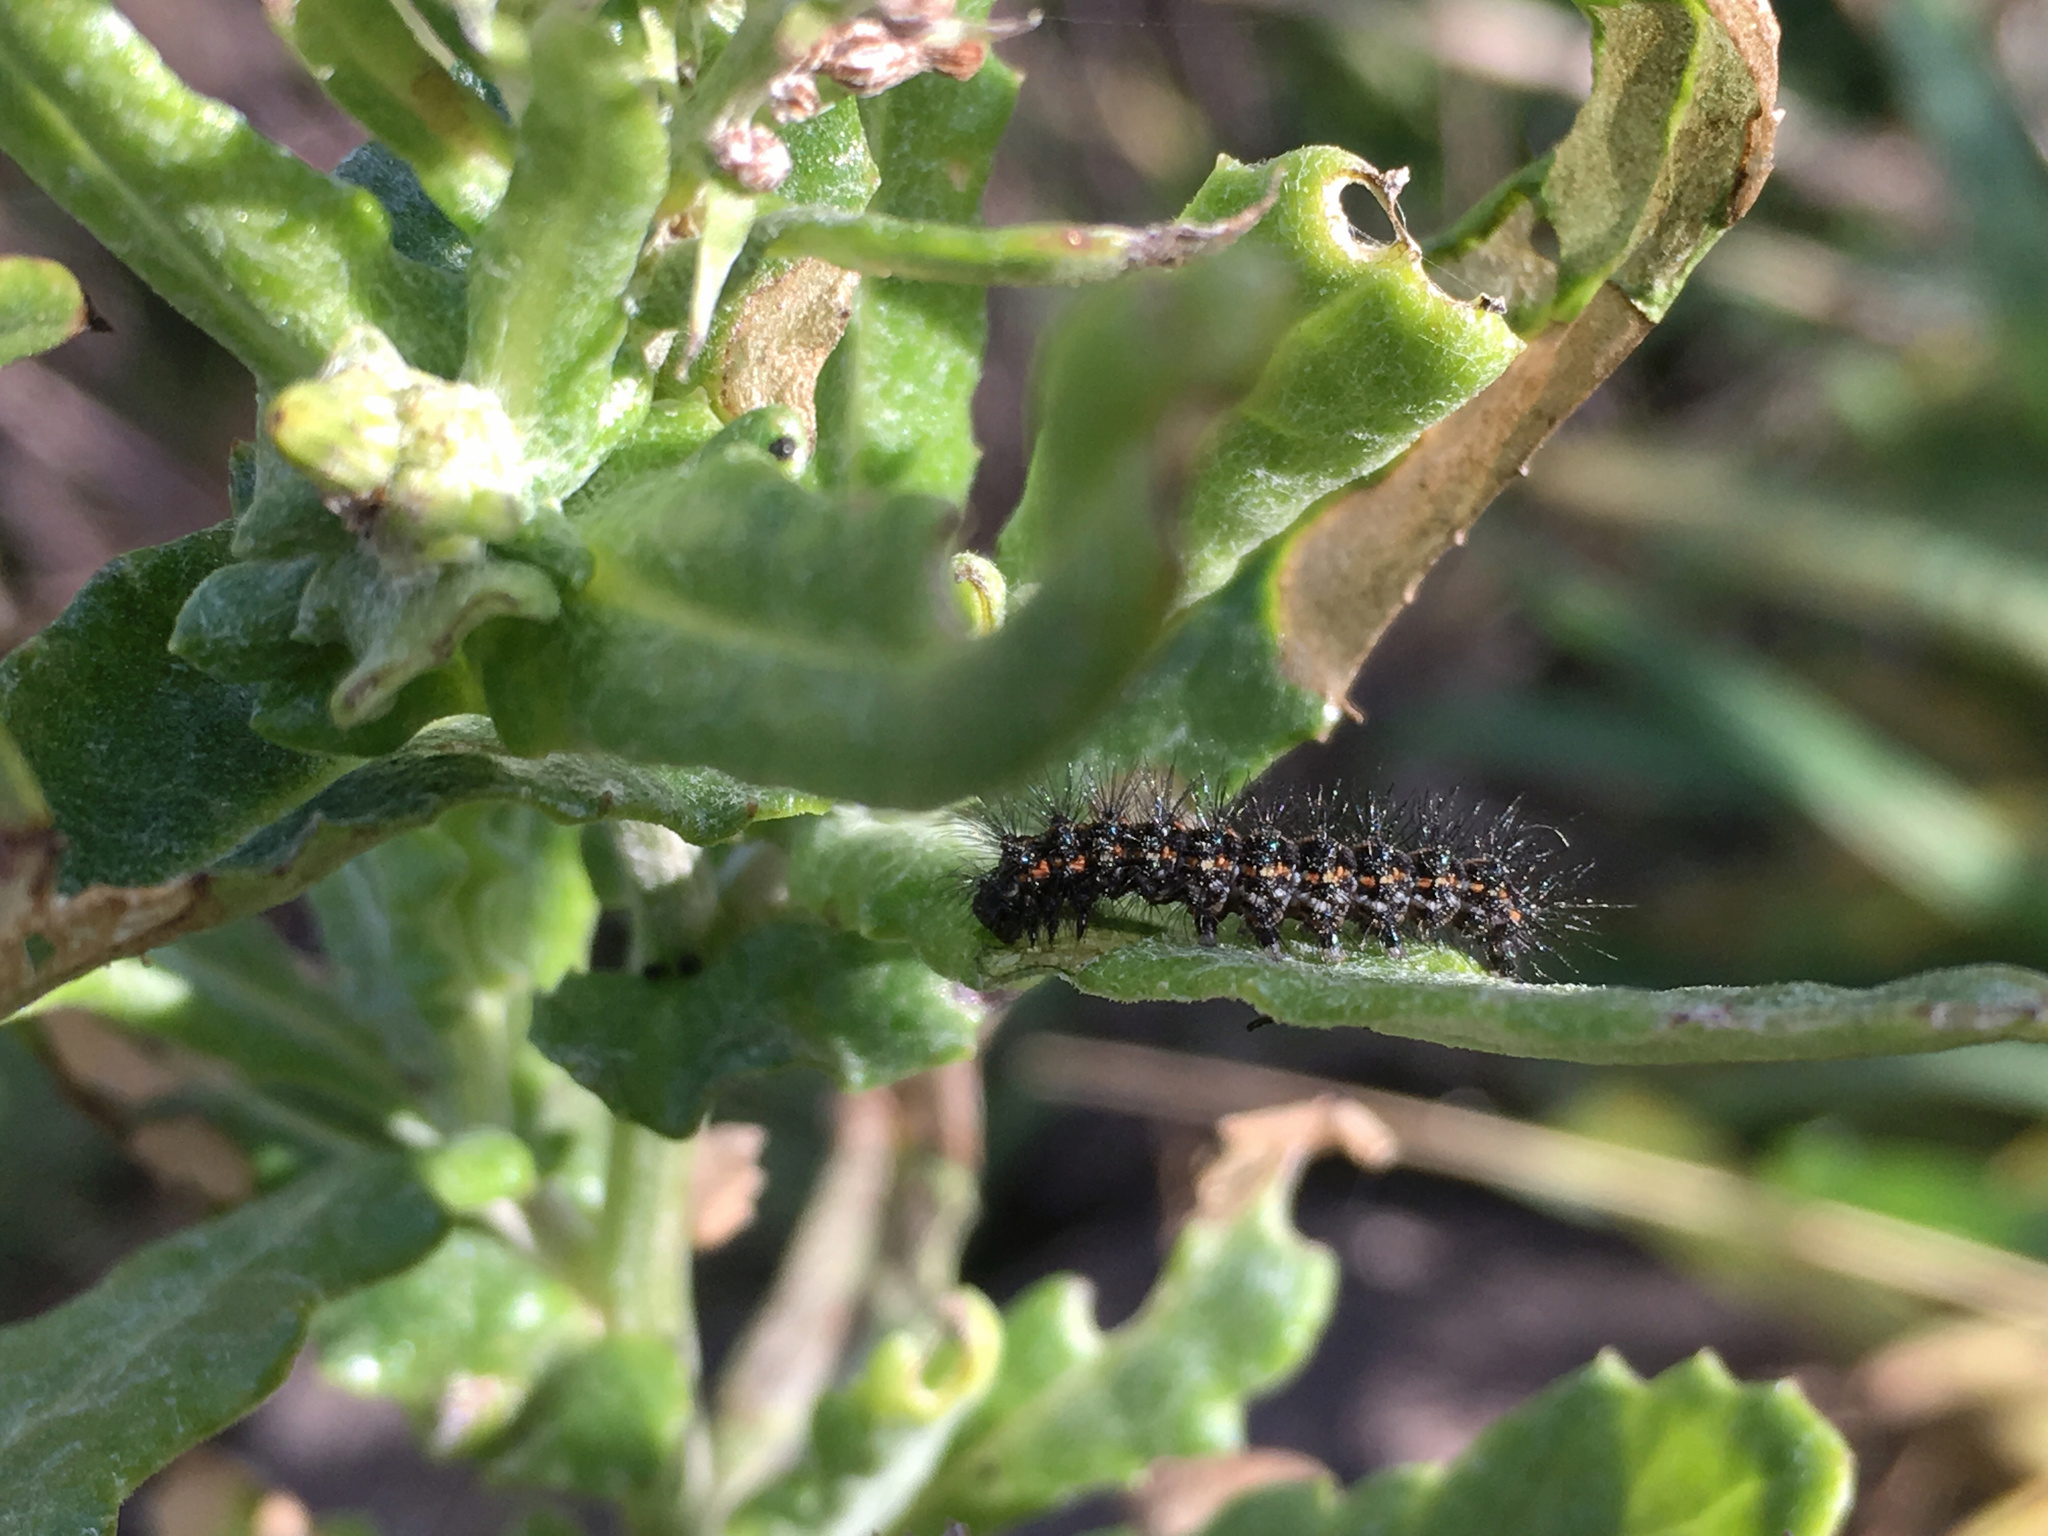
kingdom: Animalia
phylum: Arthropoda
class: Insecta
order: Lepidoptera
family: Erebidae
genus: Nyctemera
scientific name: Nyctemera annulatum
